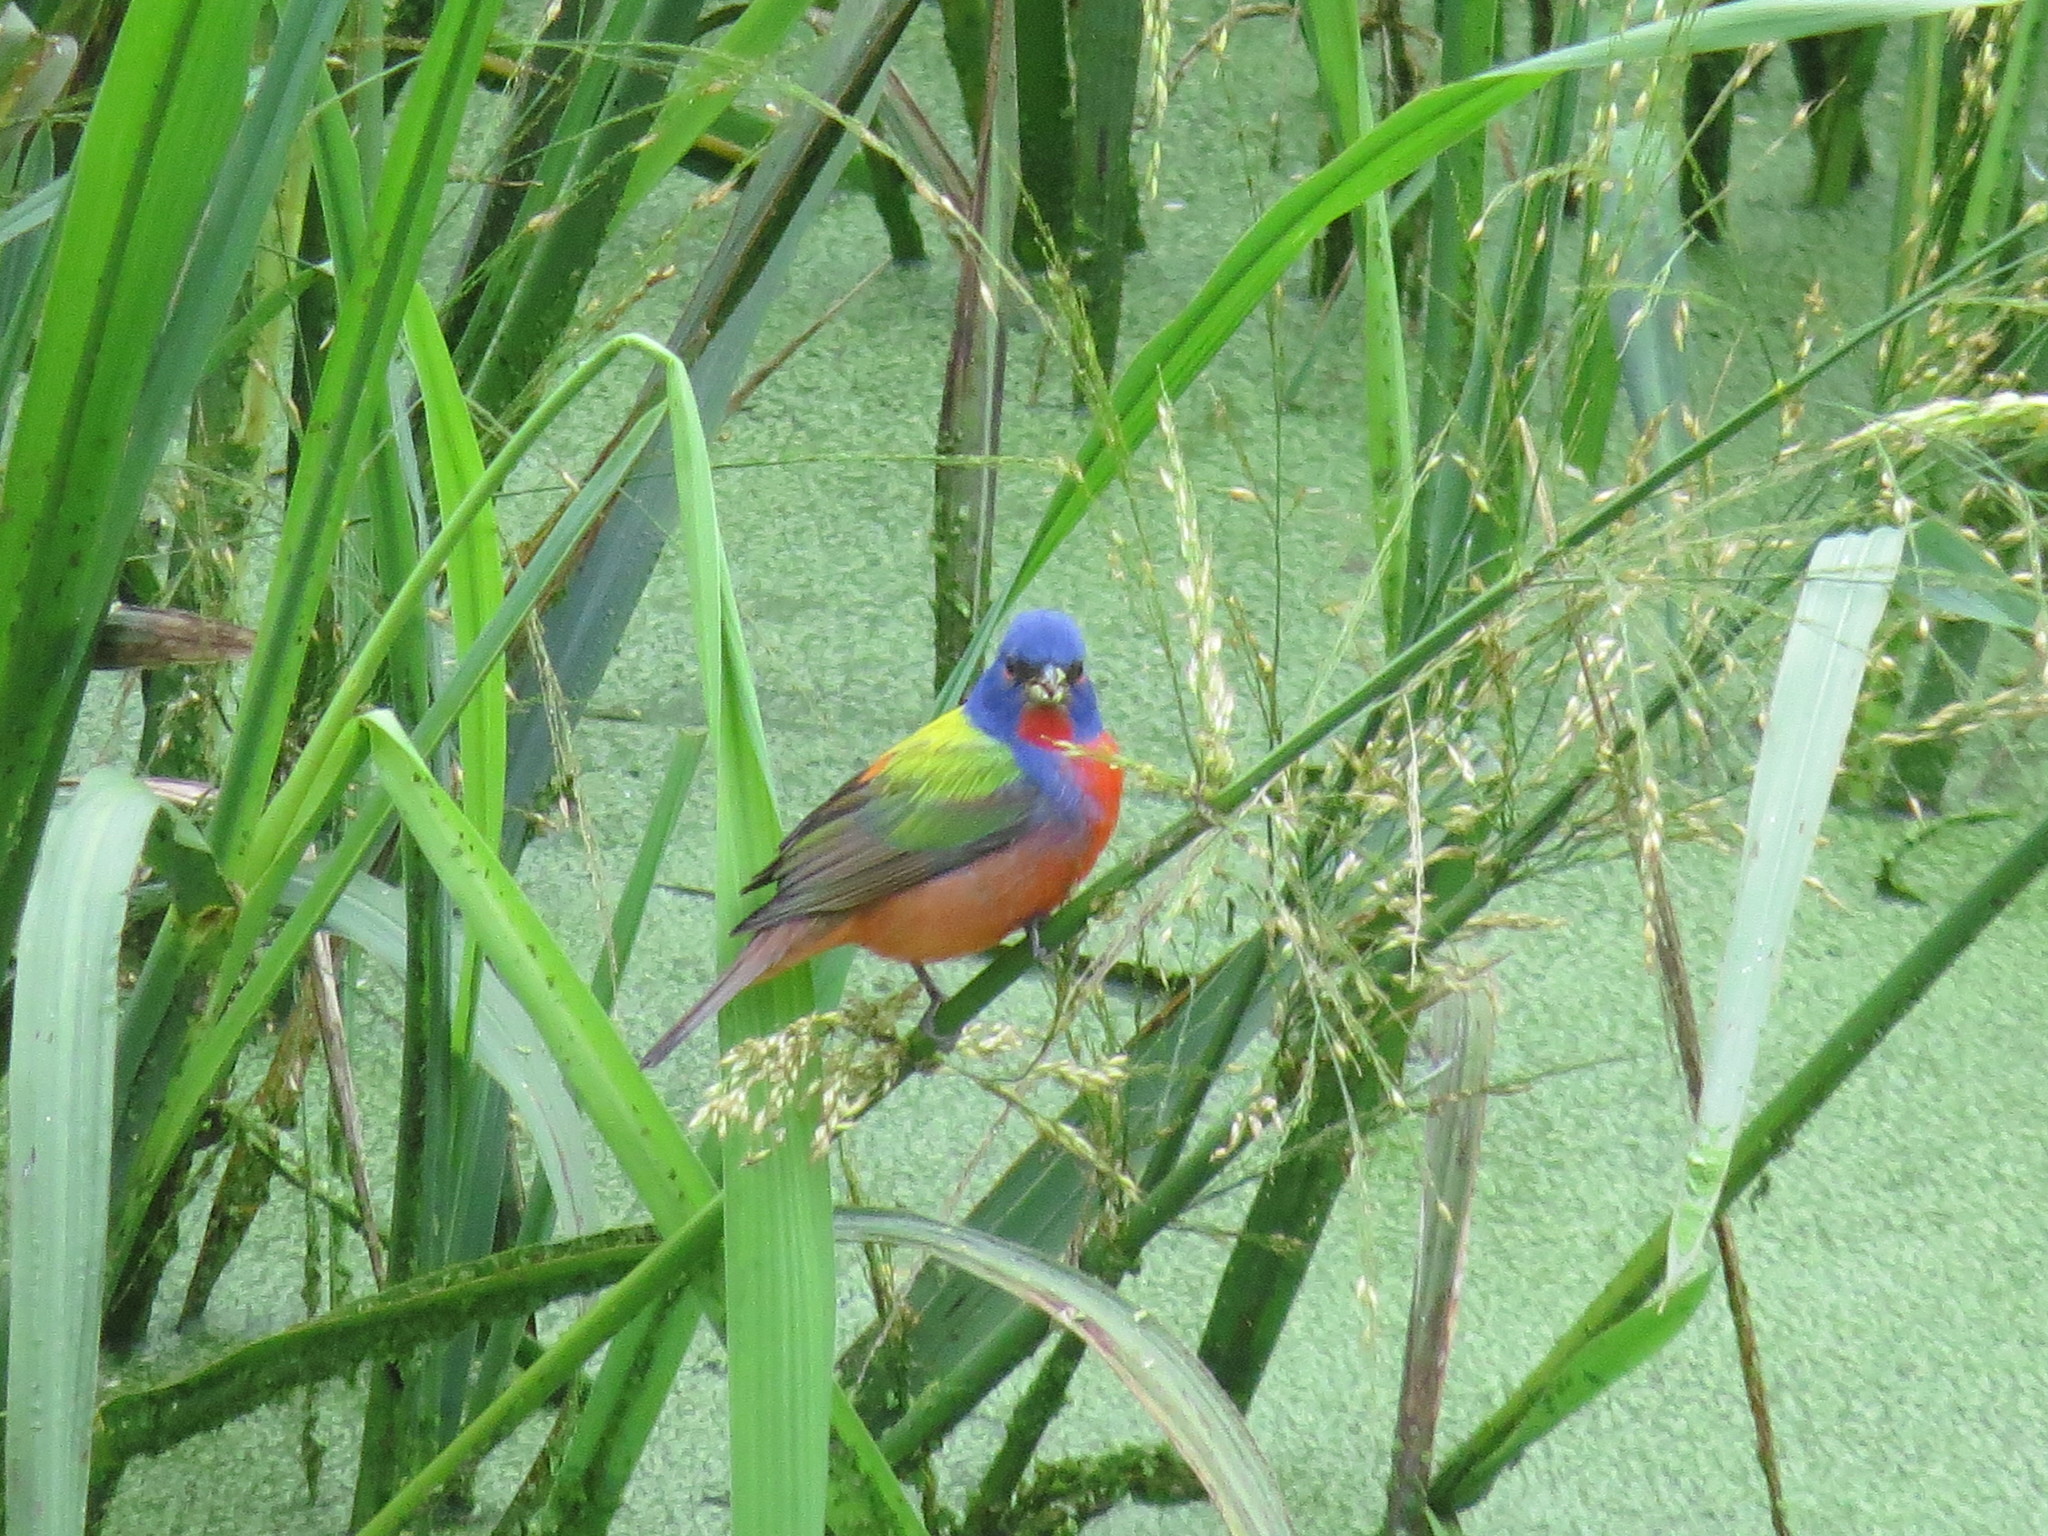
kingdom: Animalia
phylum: Chordata
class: Aves
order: Passeriformes
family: Cardinalidae
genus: Passerina
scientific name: Passerina ciris
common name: Painted bunting
